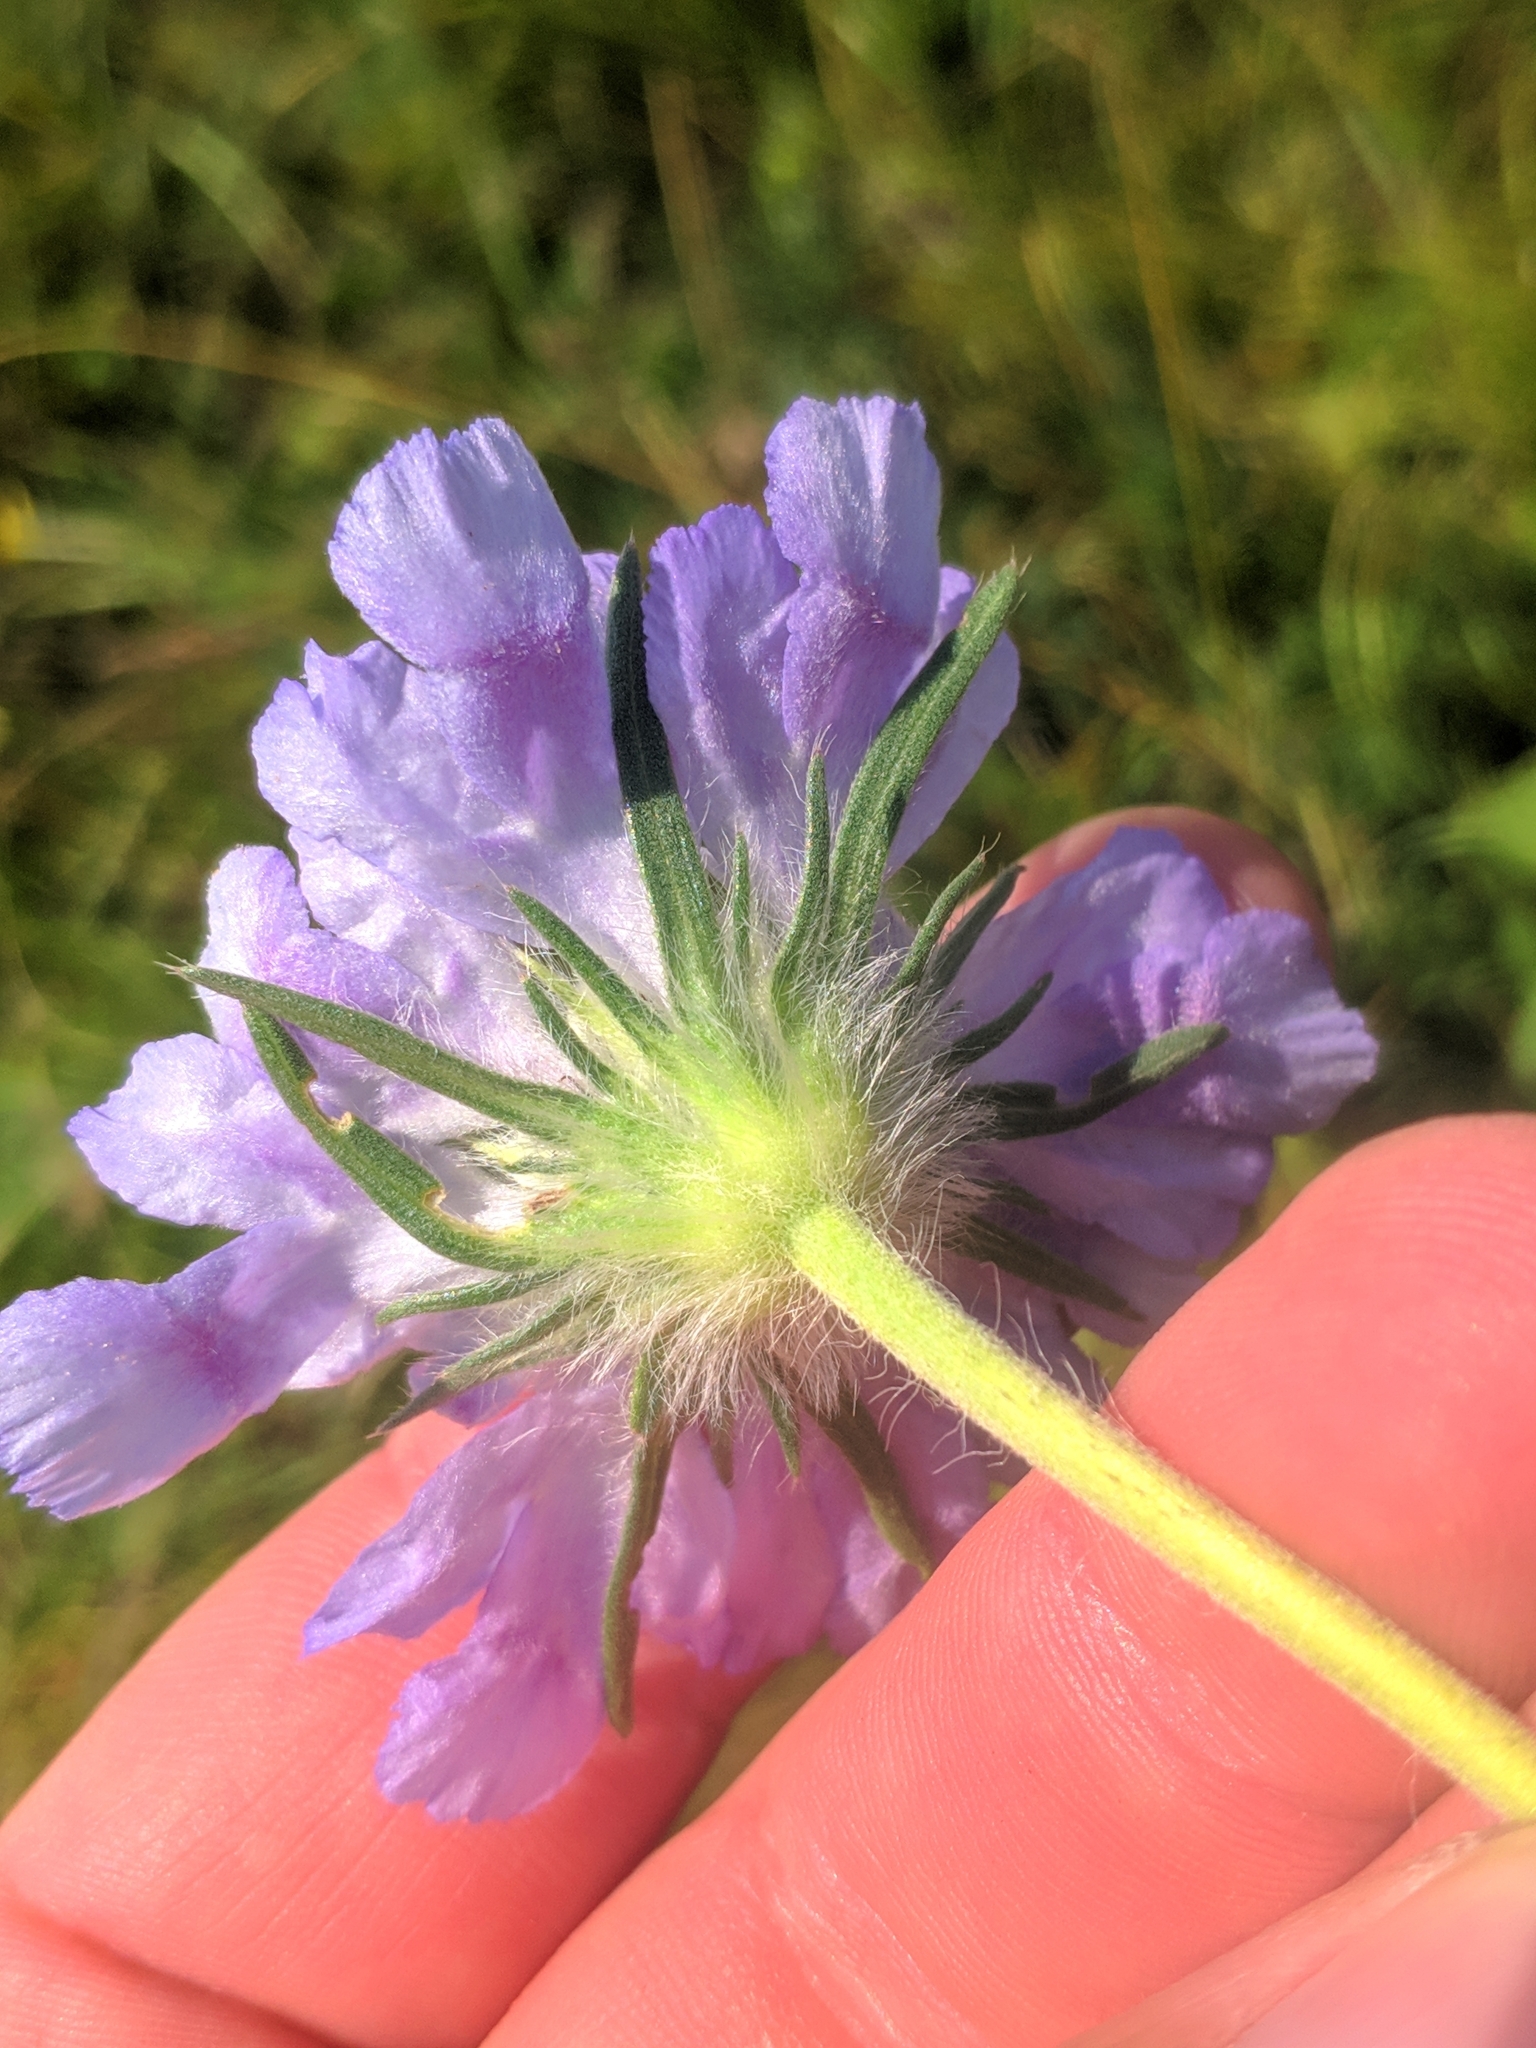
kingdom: Plantae
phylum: Tracheophyta
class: Magnoliopsida
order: Dipsacales
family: Caprifoliaceae
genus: Lomelosia
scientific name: Lomelosia caucasica
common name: Pincushion-flower
